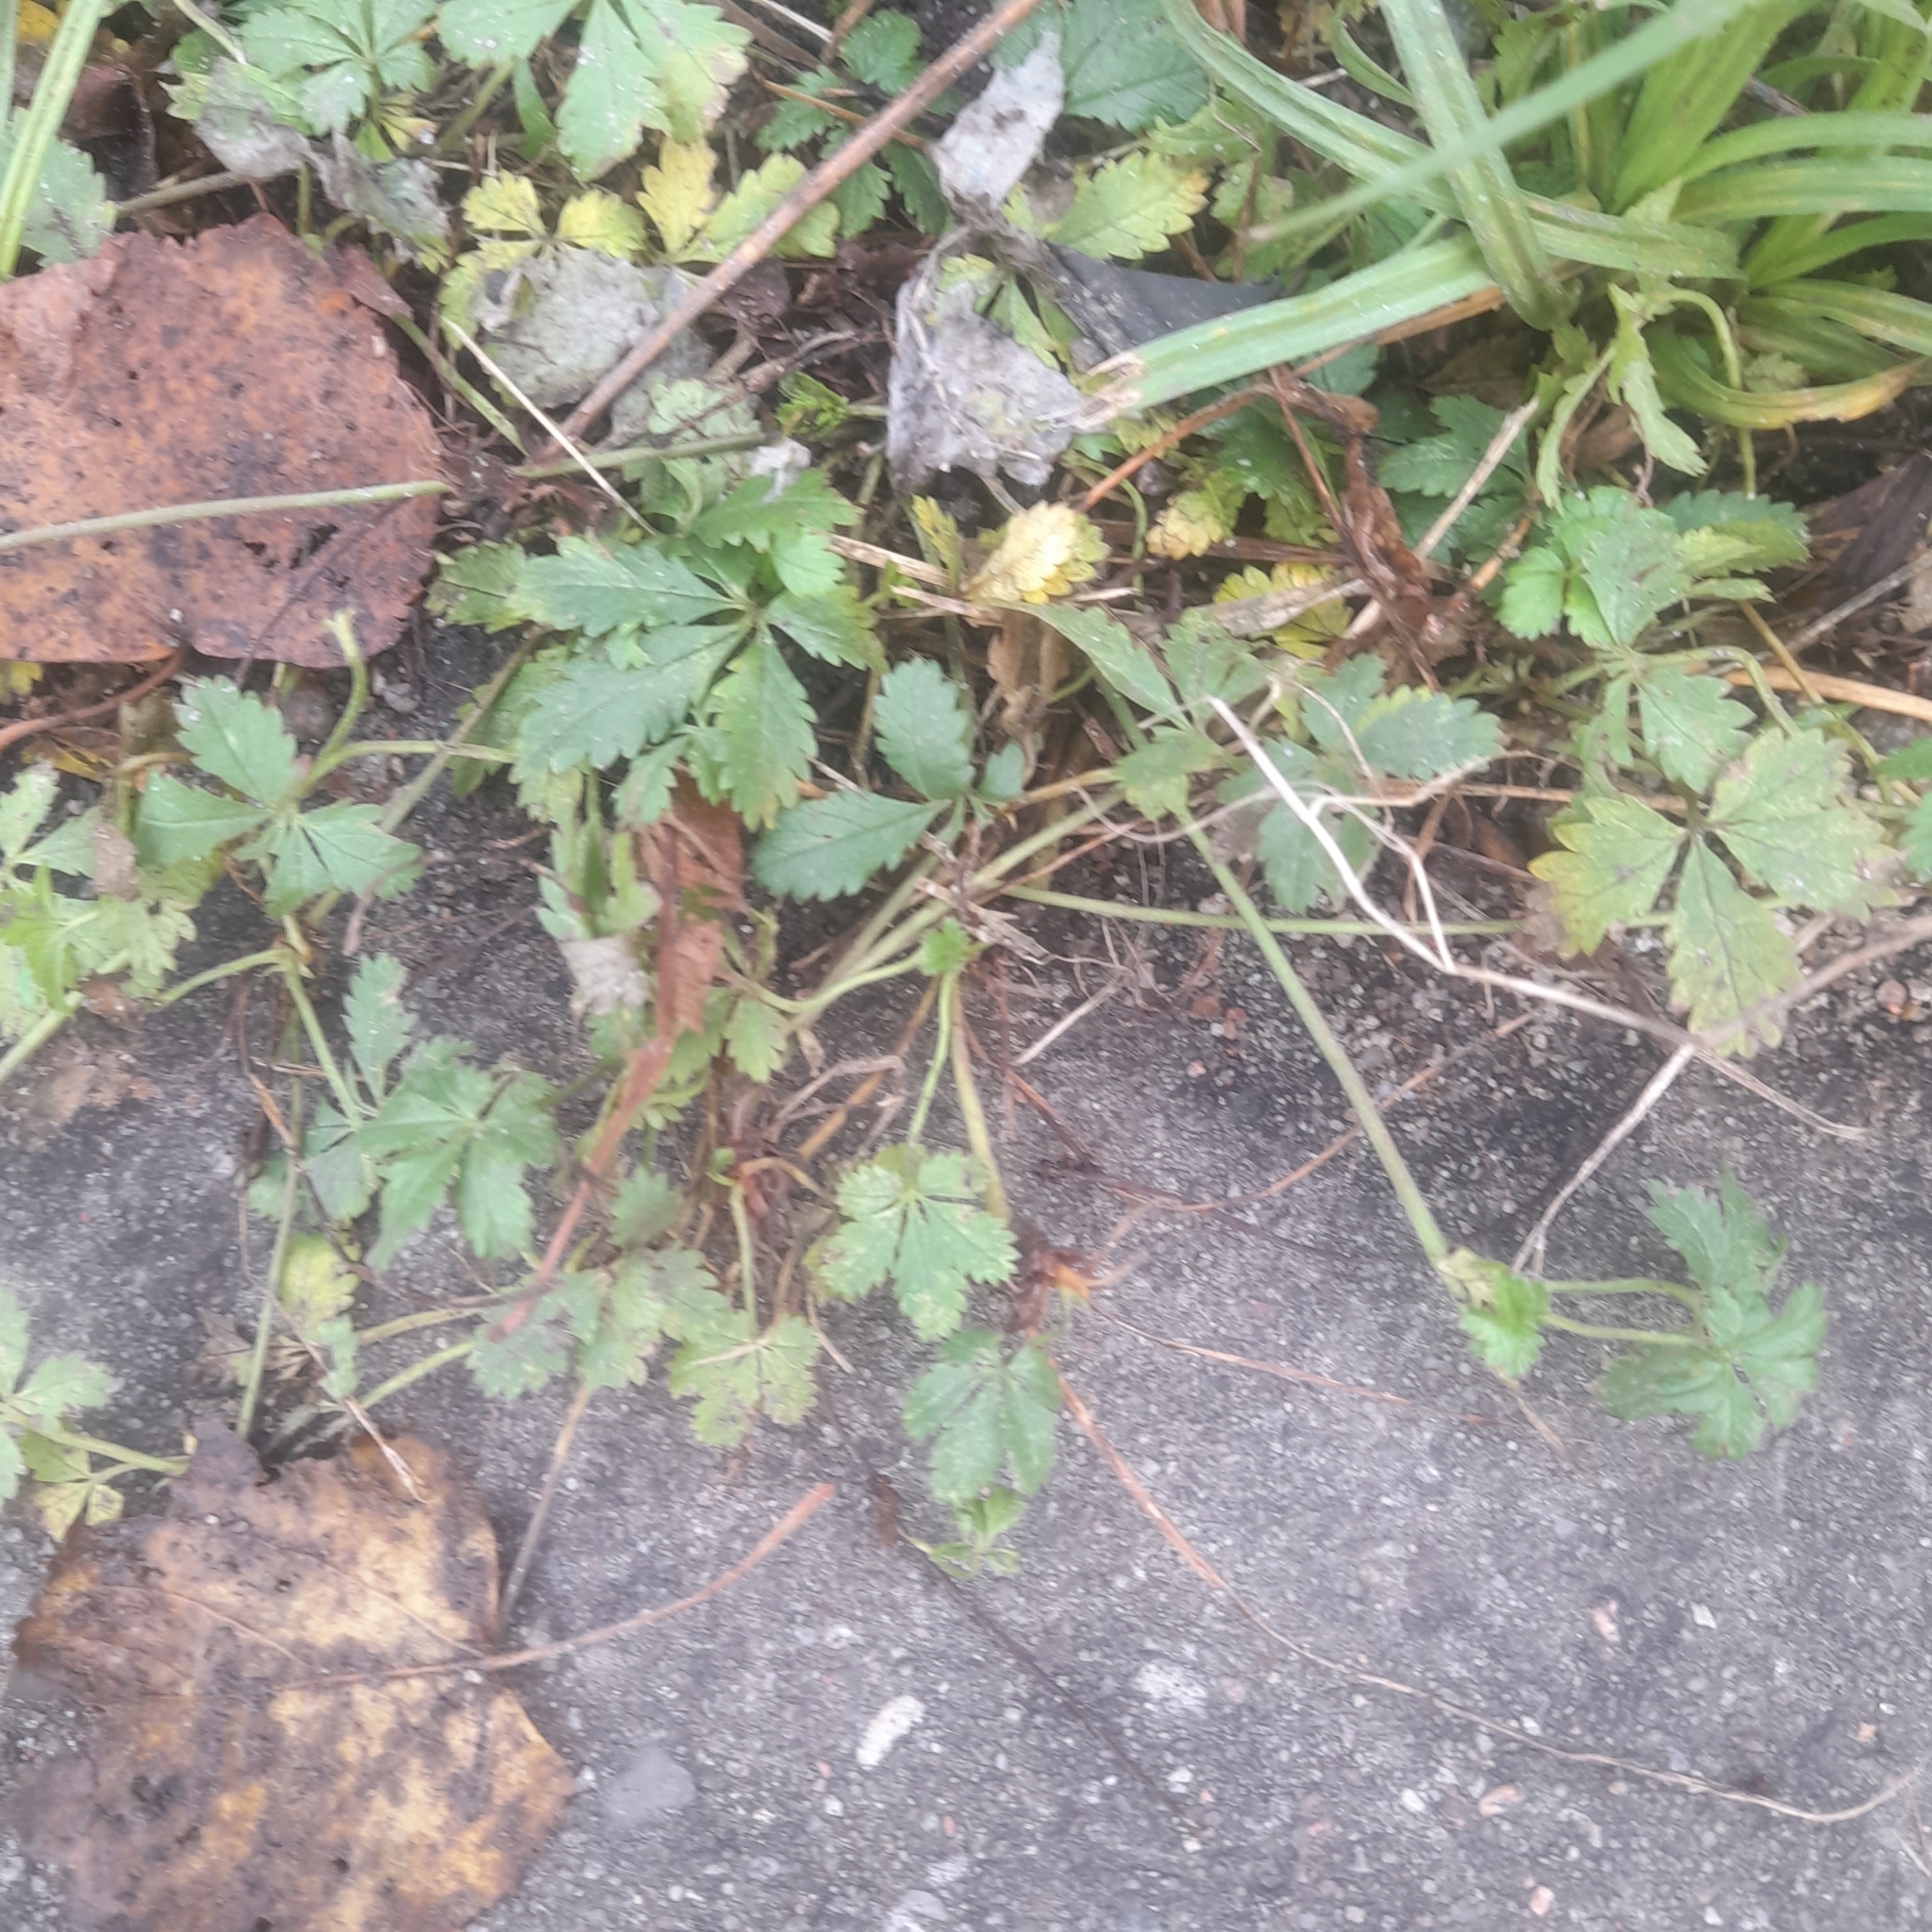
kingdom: Plantae
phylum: Tracheophyta
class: Magnoliopsida
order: Rosales
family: Rosaceae
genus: Potentilla
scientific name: Potentilla reptans
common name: Creeping cinquefoil
